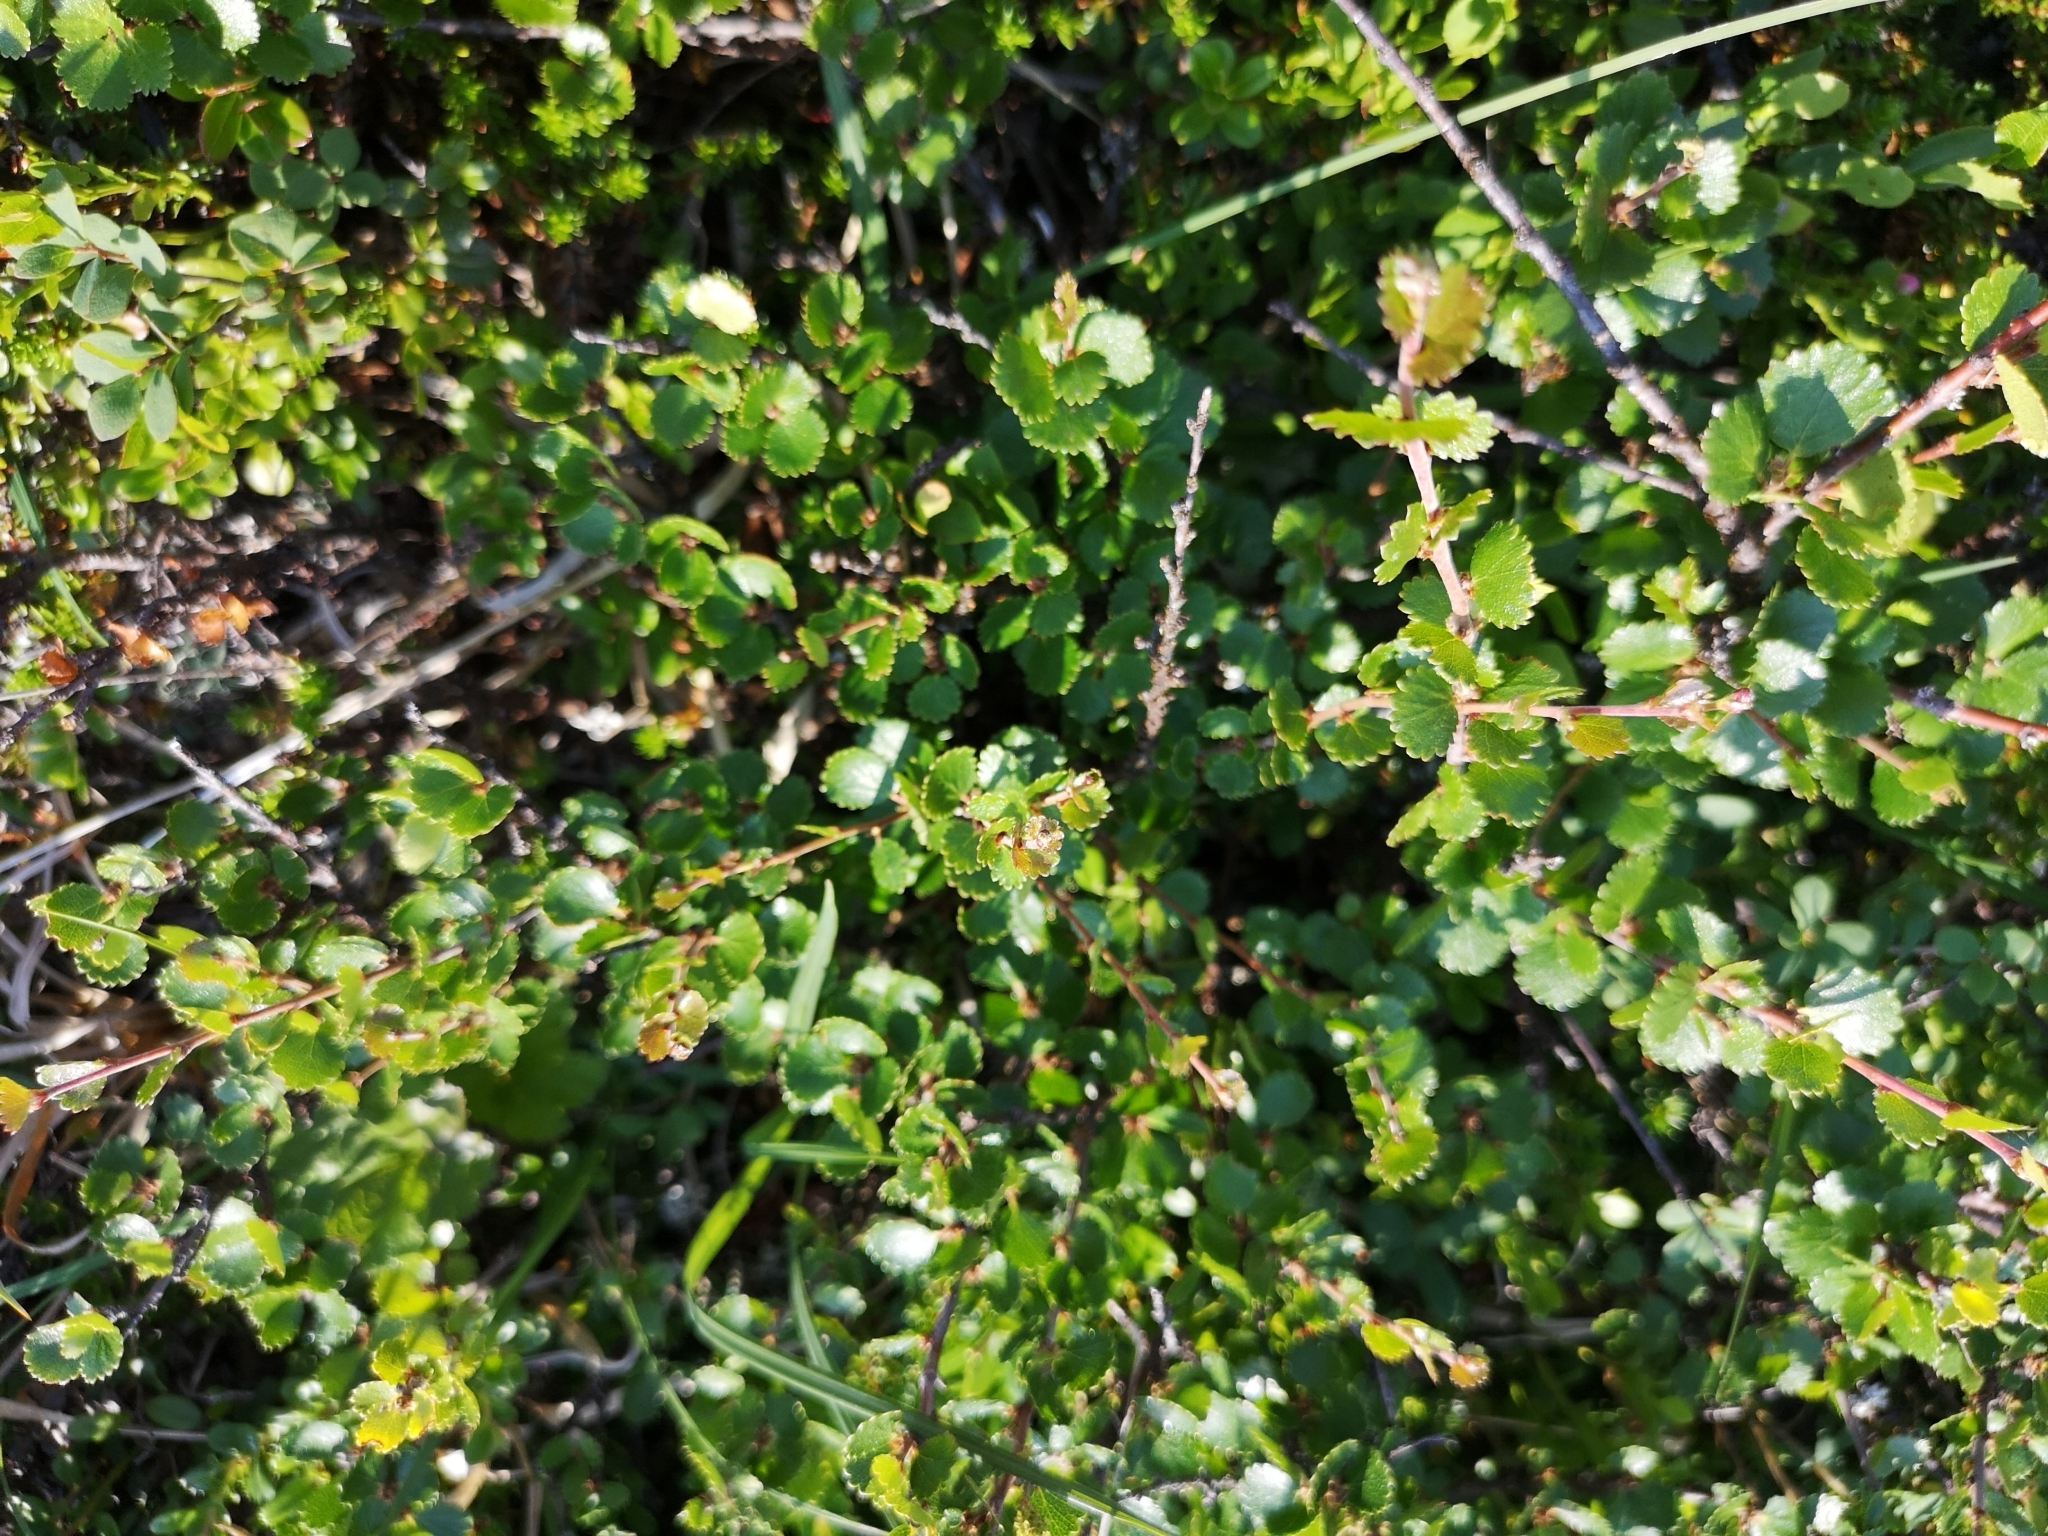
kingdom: Plantae
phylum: Tracheophyta
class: Magnoliopsida
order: Fagales
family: Betulaceae
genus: Betula
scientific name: Betula nana
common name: Arctic dwarf birch
